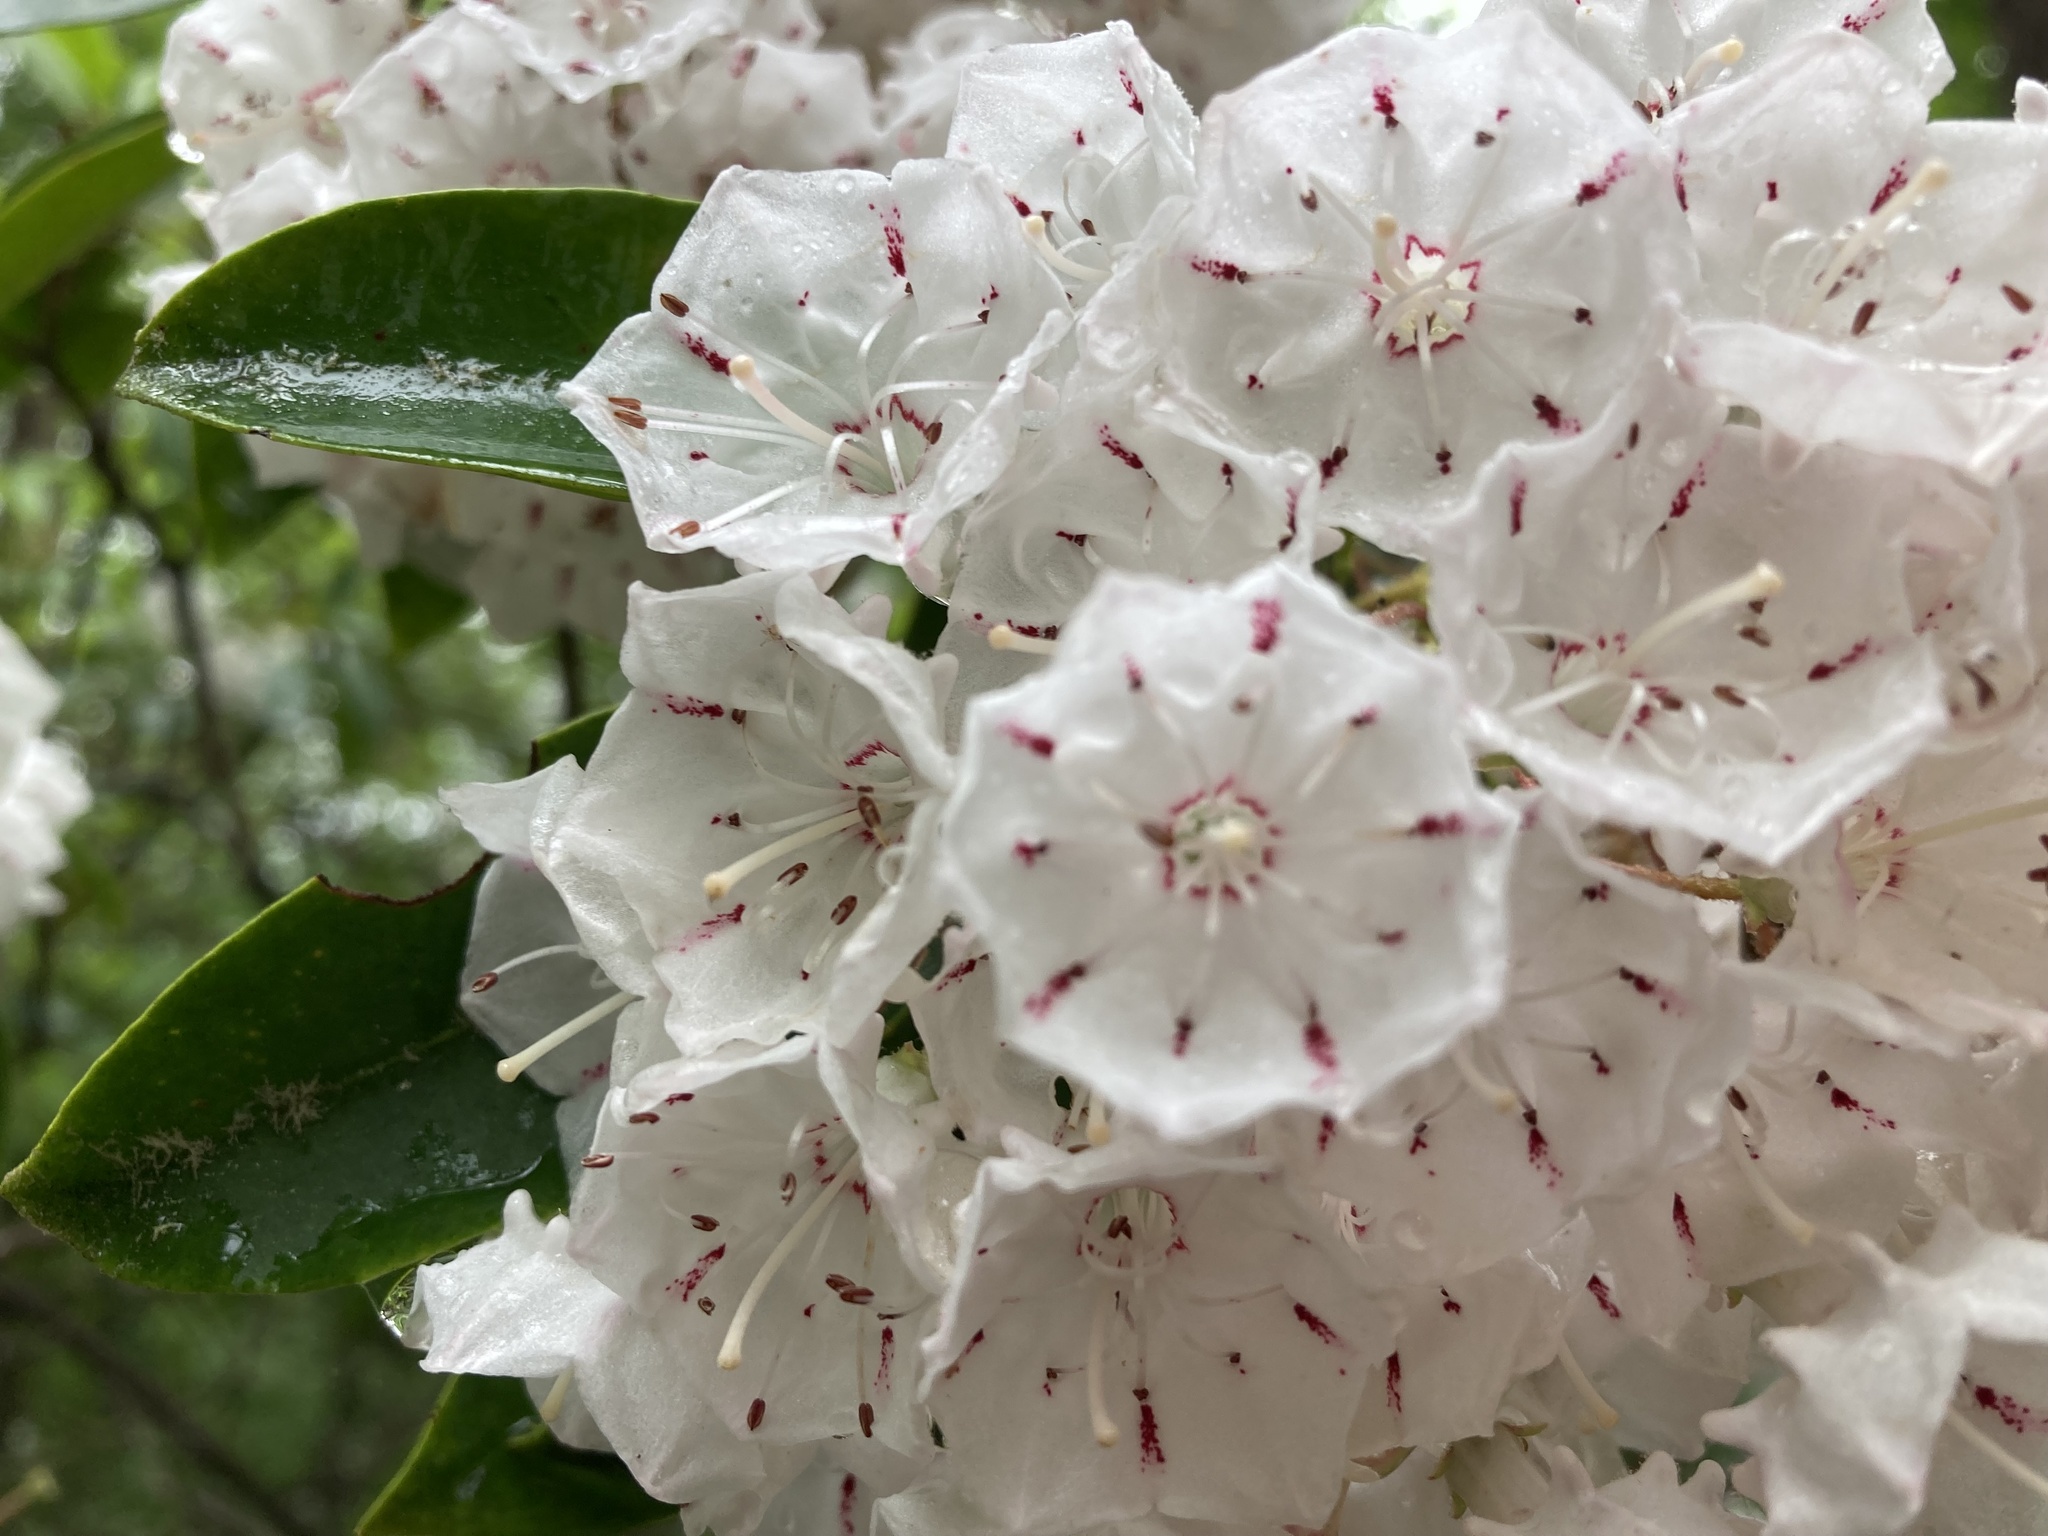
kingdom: Plantae
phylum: Tracheophyta
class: Magnoliopsida
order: Ericales
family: Ericaceae
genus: Kalmia
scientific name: Kalmia latifolia
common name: Mountain-laurel
